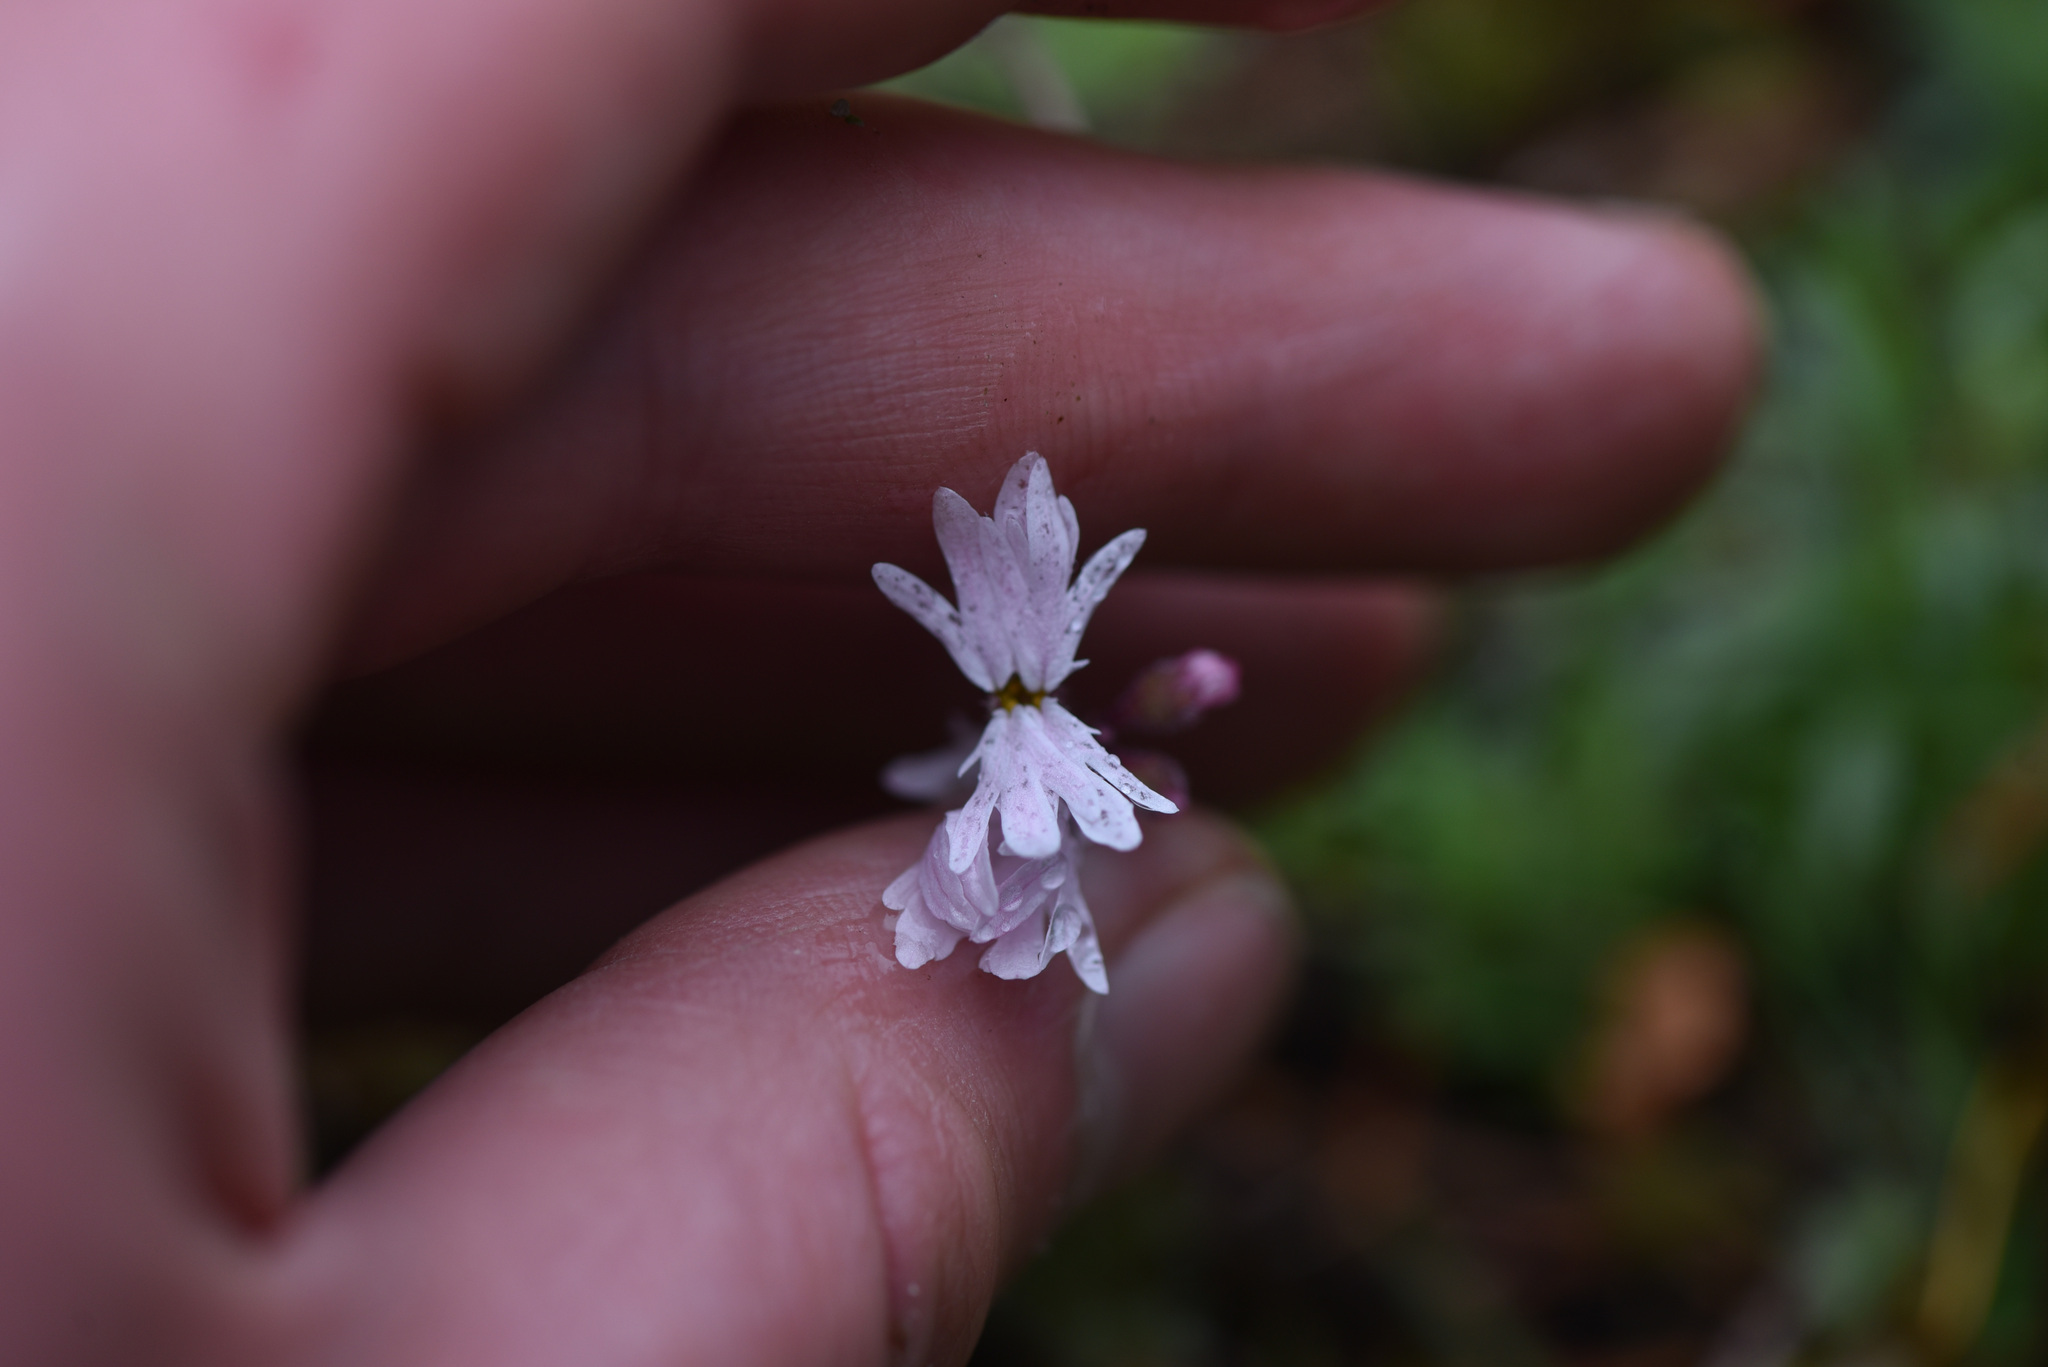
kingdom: Plantae
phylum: Tracheophyta
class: Magnoliopsida
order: Saxifragales
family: Saxifragaceae
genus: Lithophragma
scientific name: Lithophragma parviflorum
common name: Small-flowered fringe-cup
